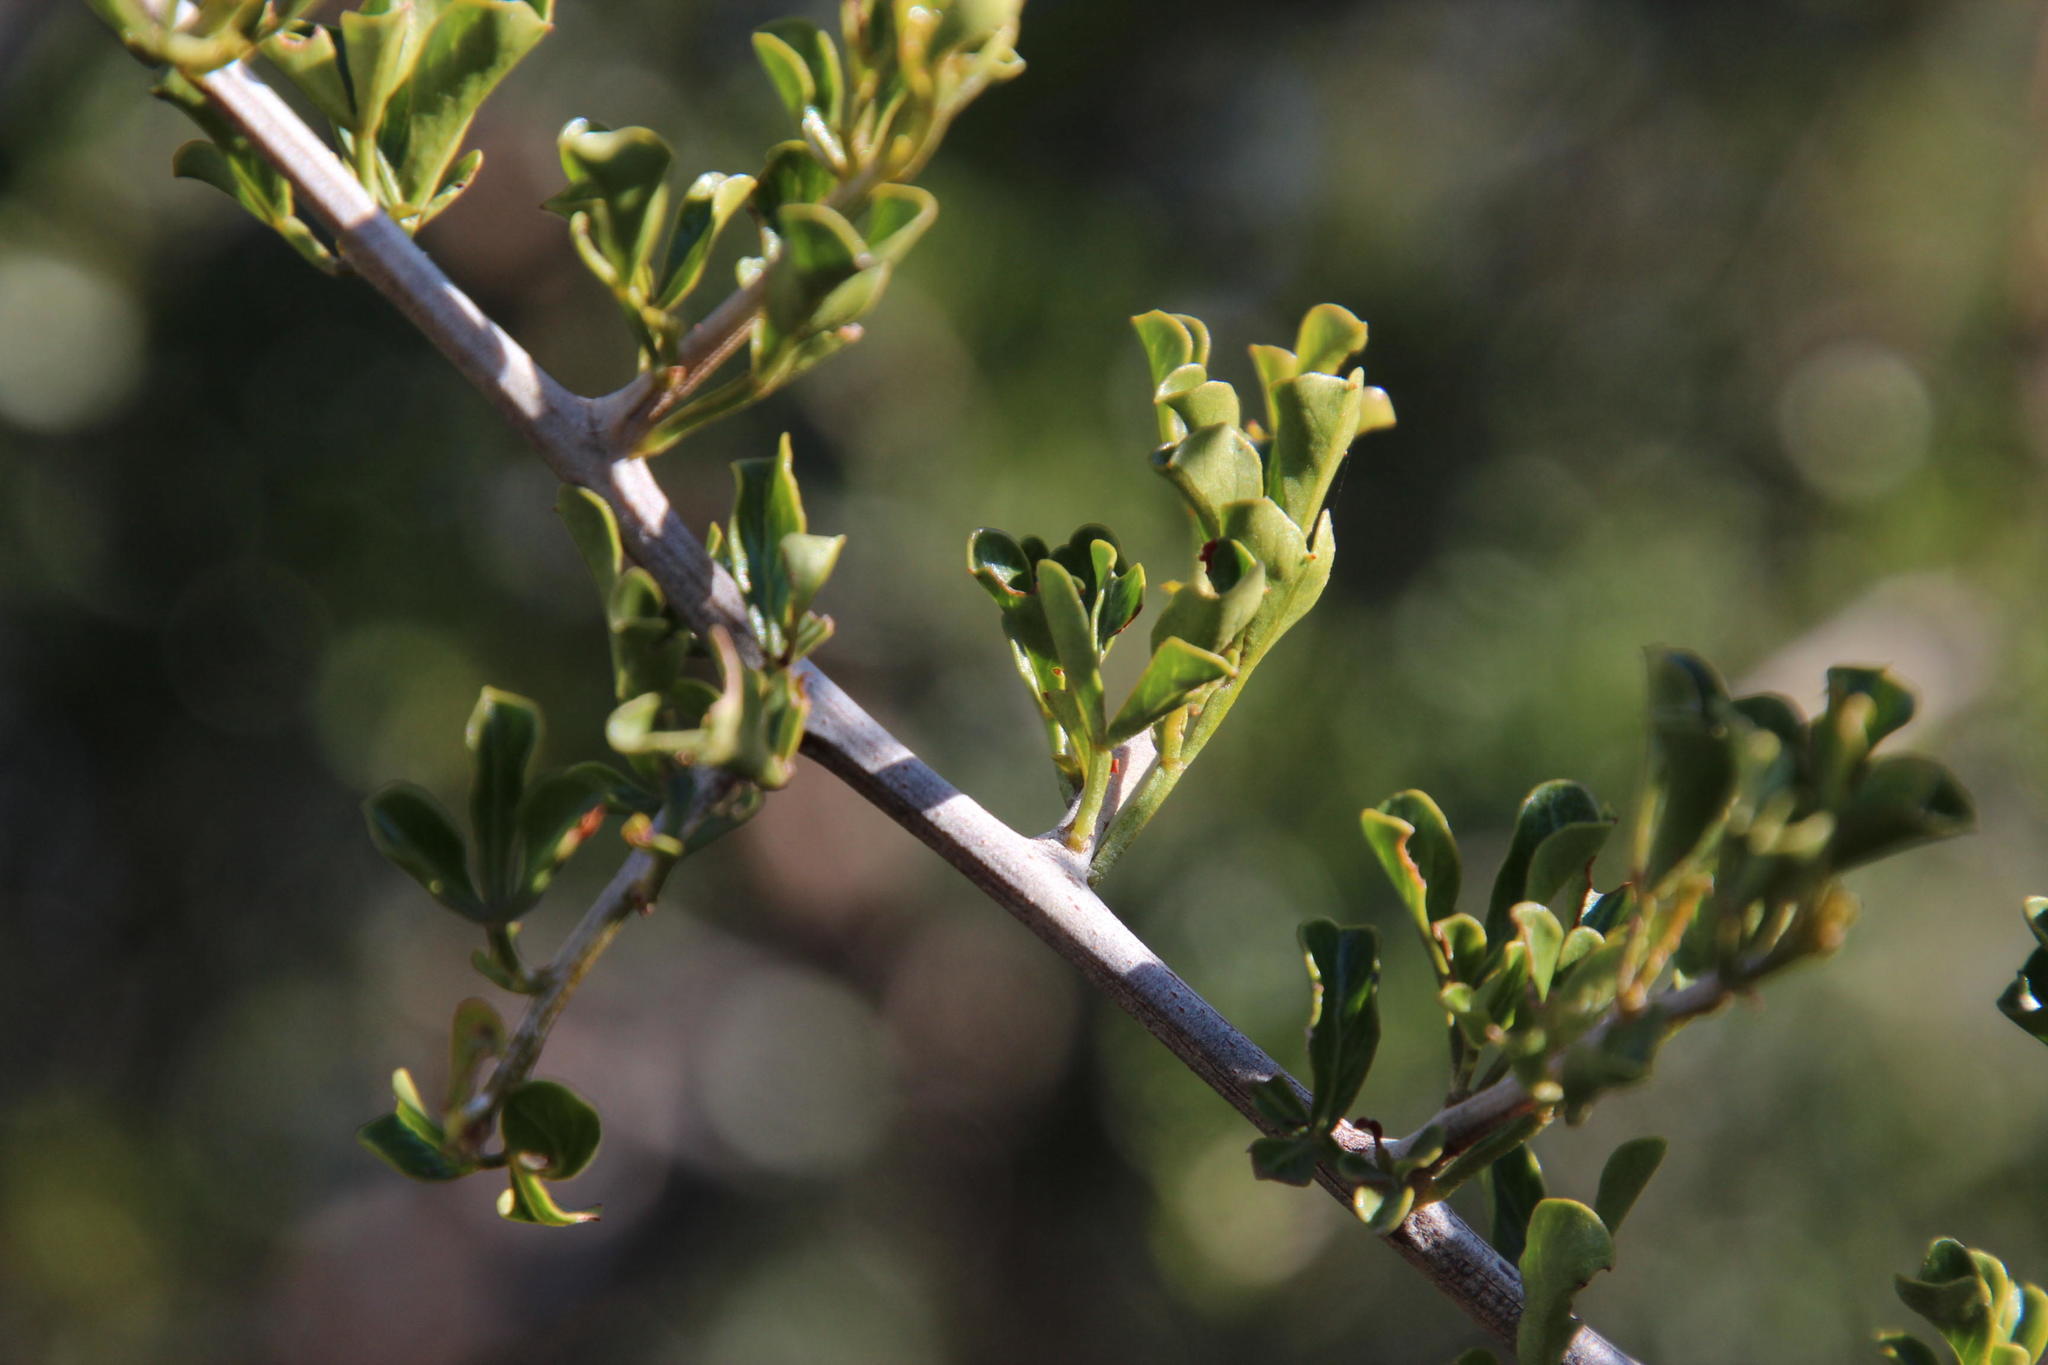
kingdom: Plantae
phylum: Tracheophyta
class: Magnoliopsida
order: Sapindales
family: Anacardiaceae
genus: Searsia
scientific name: Searsia burchellii
